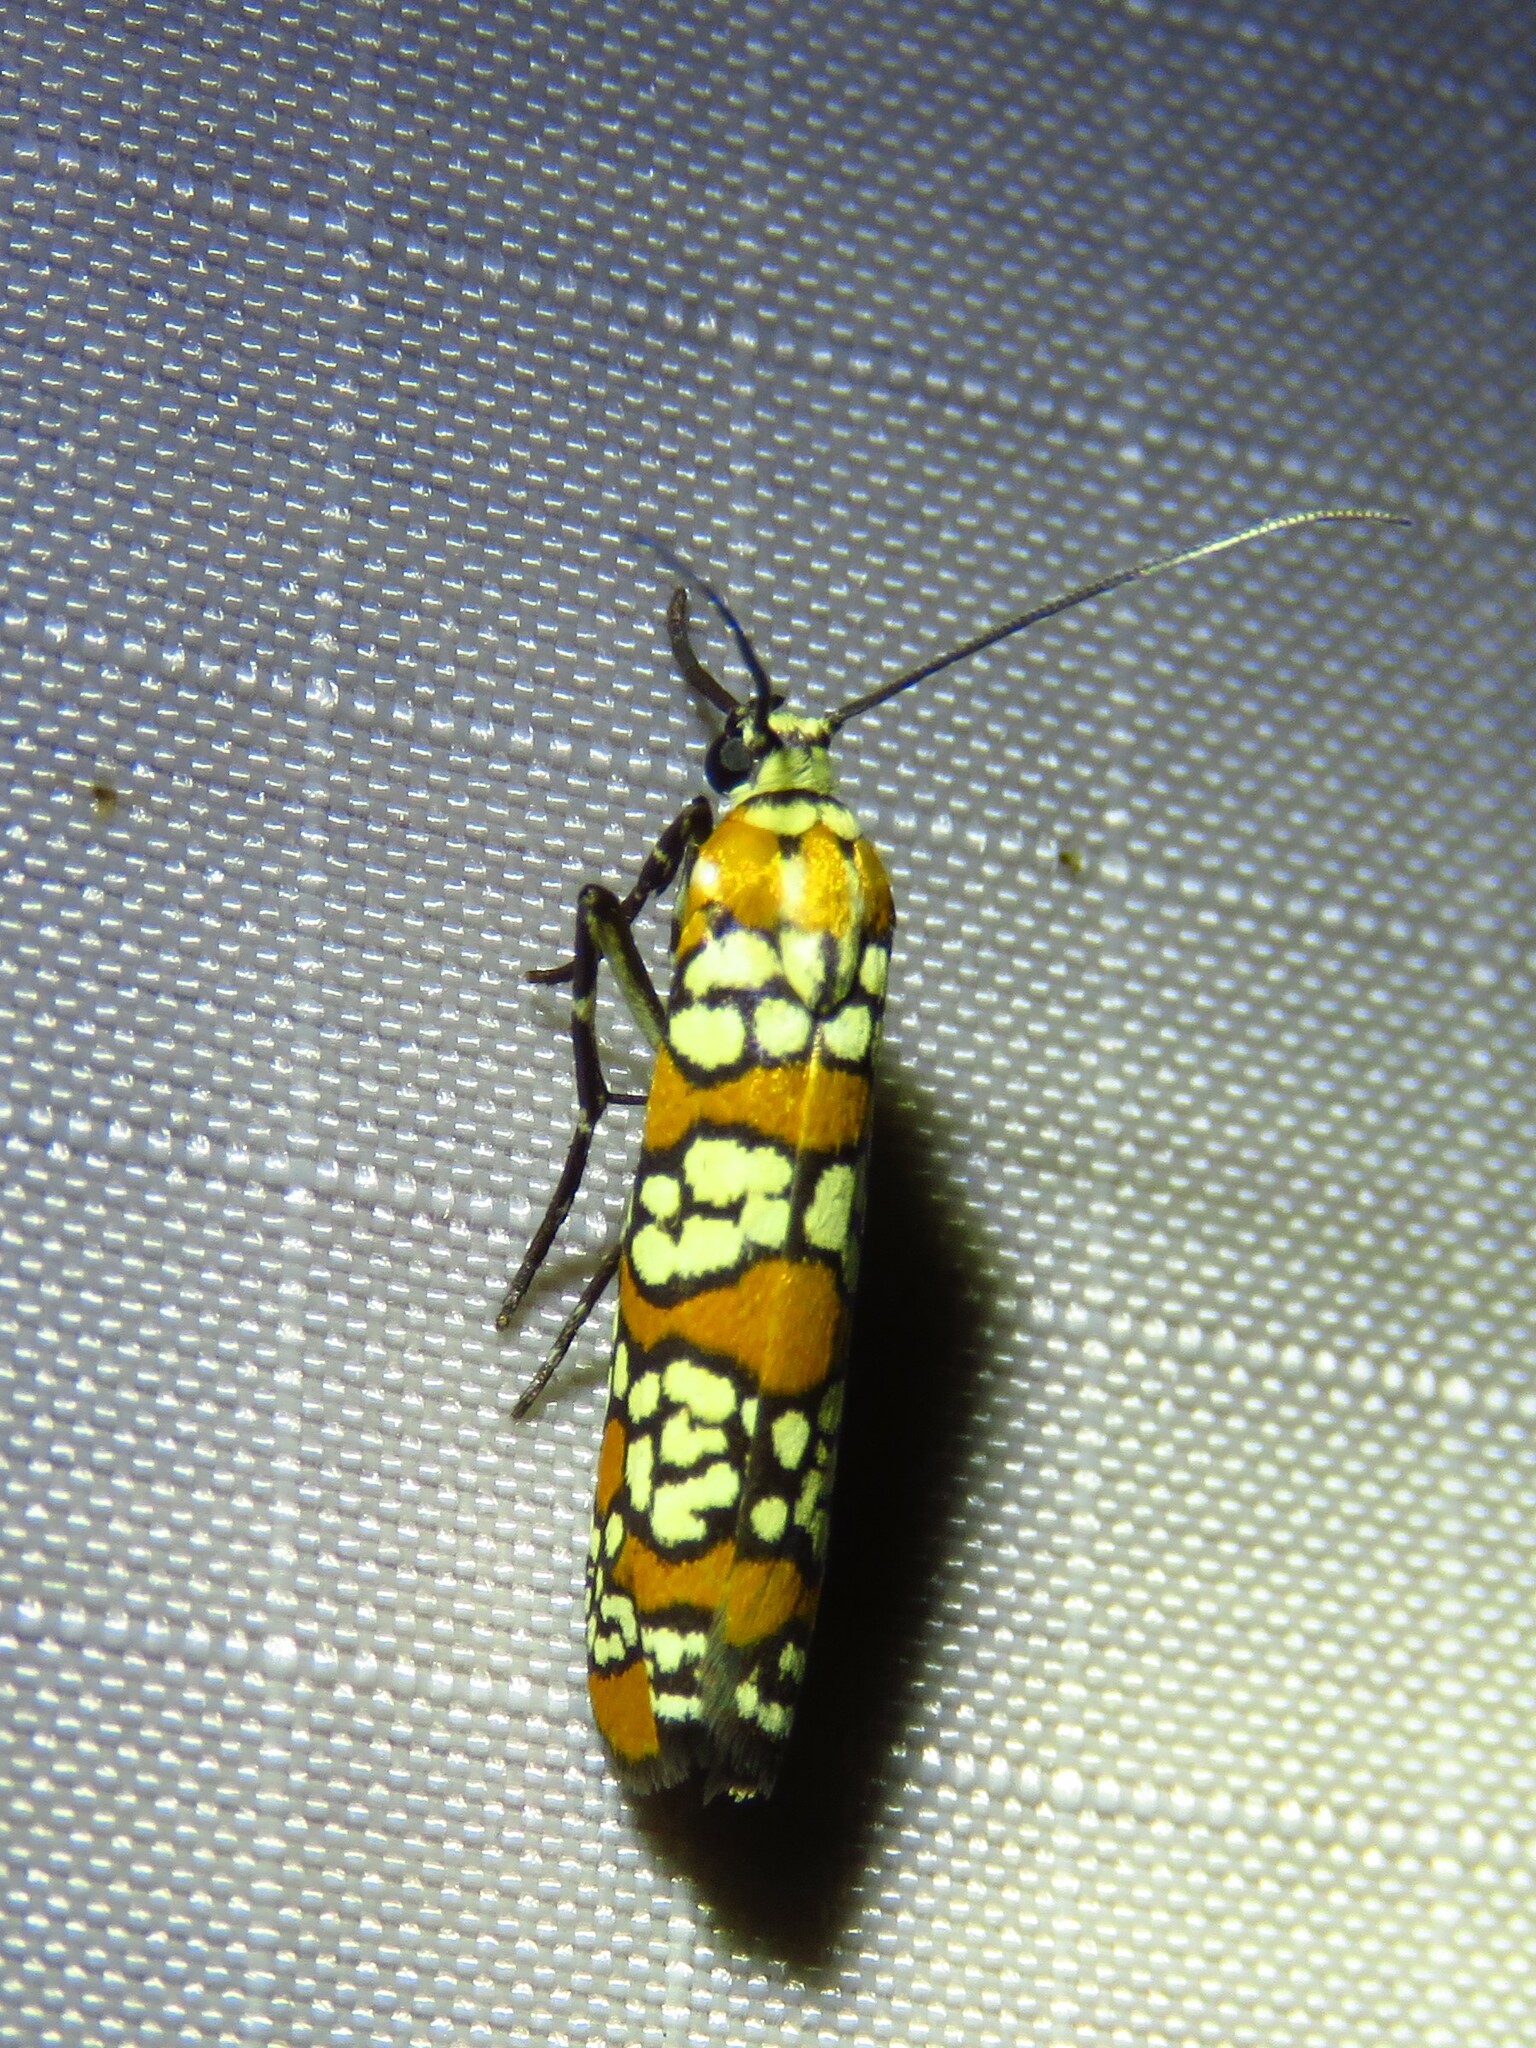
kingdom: Animalia
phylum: Arthropoda
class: Insecta
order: Lepidoptera
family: Attevidae
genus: Atteva
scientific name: Atteva punctella
